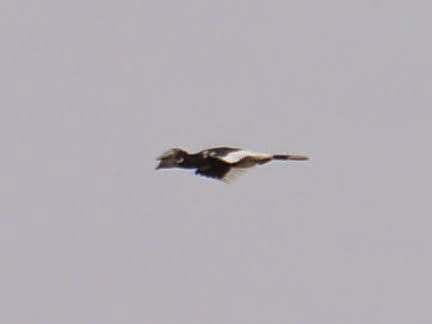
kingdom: Animalia
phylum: Chordata
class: Aves
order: Bucerotiformes
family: Bucerotidae
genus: Bycanistes
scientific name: Bycanistes albotibialis
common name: White-thighed hornbill
